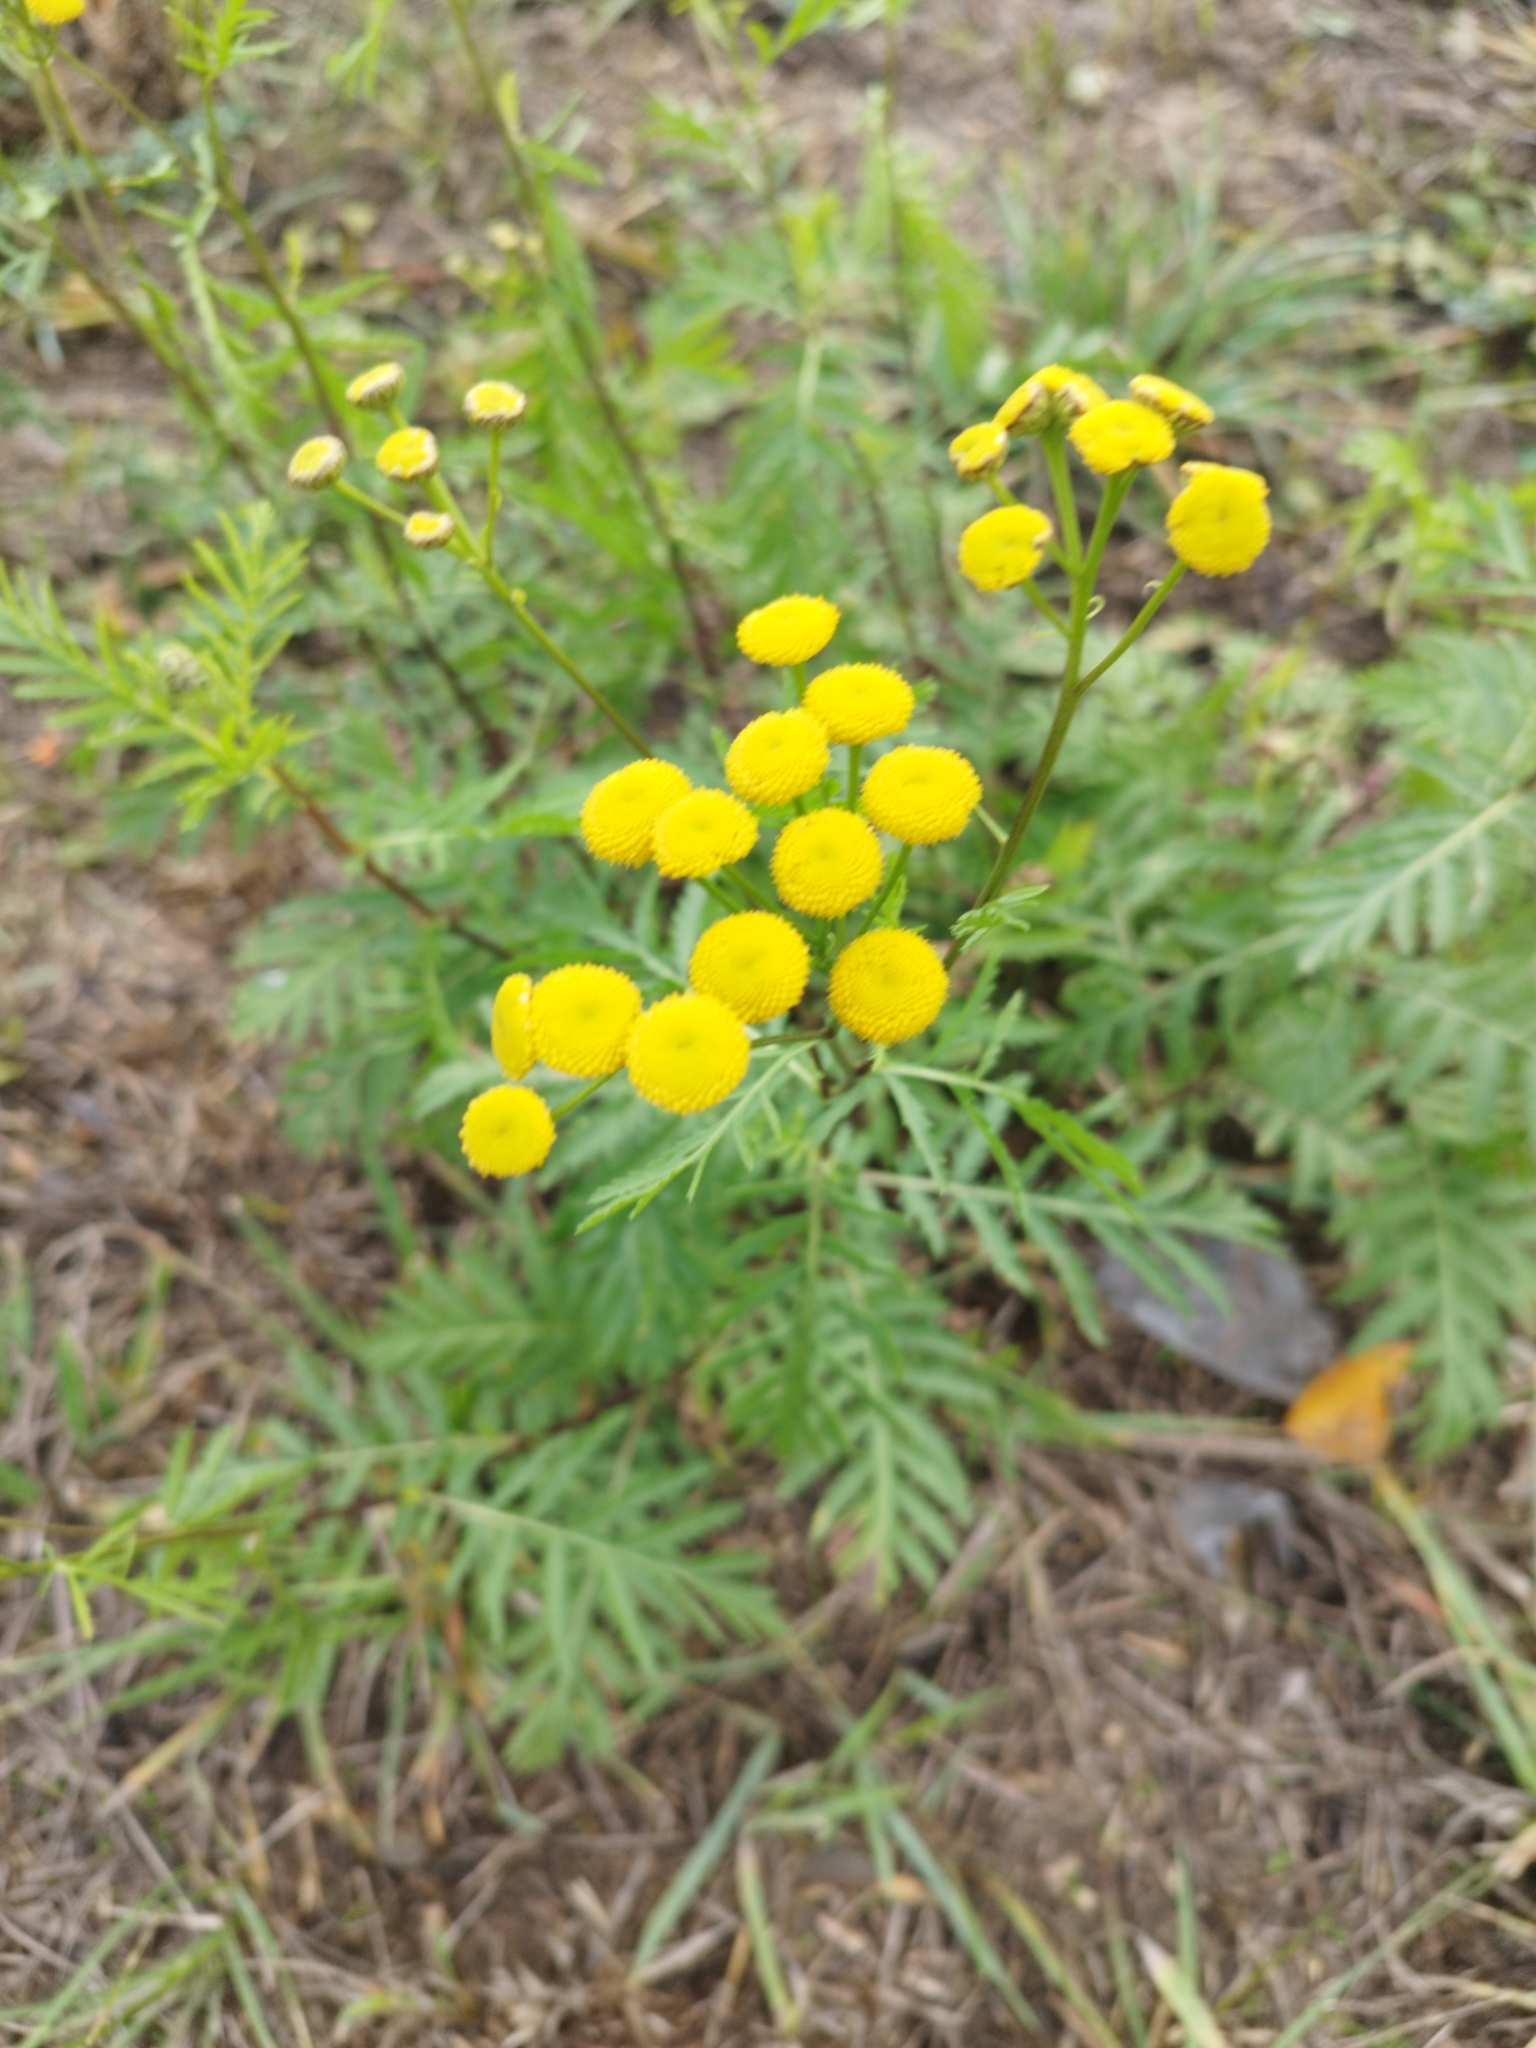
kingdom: Plantae
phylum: Tracheophyta
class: Magnoliopsida
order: Asterales
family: Asteraceae
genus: Tanacetum
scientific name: Tanacetum vulgare
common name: Common tansy
